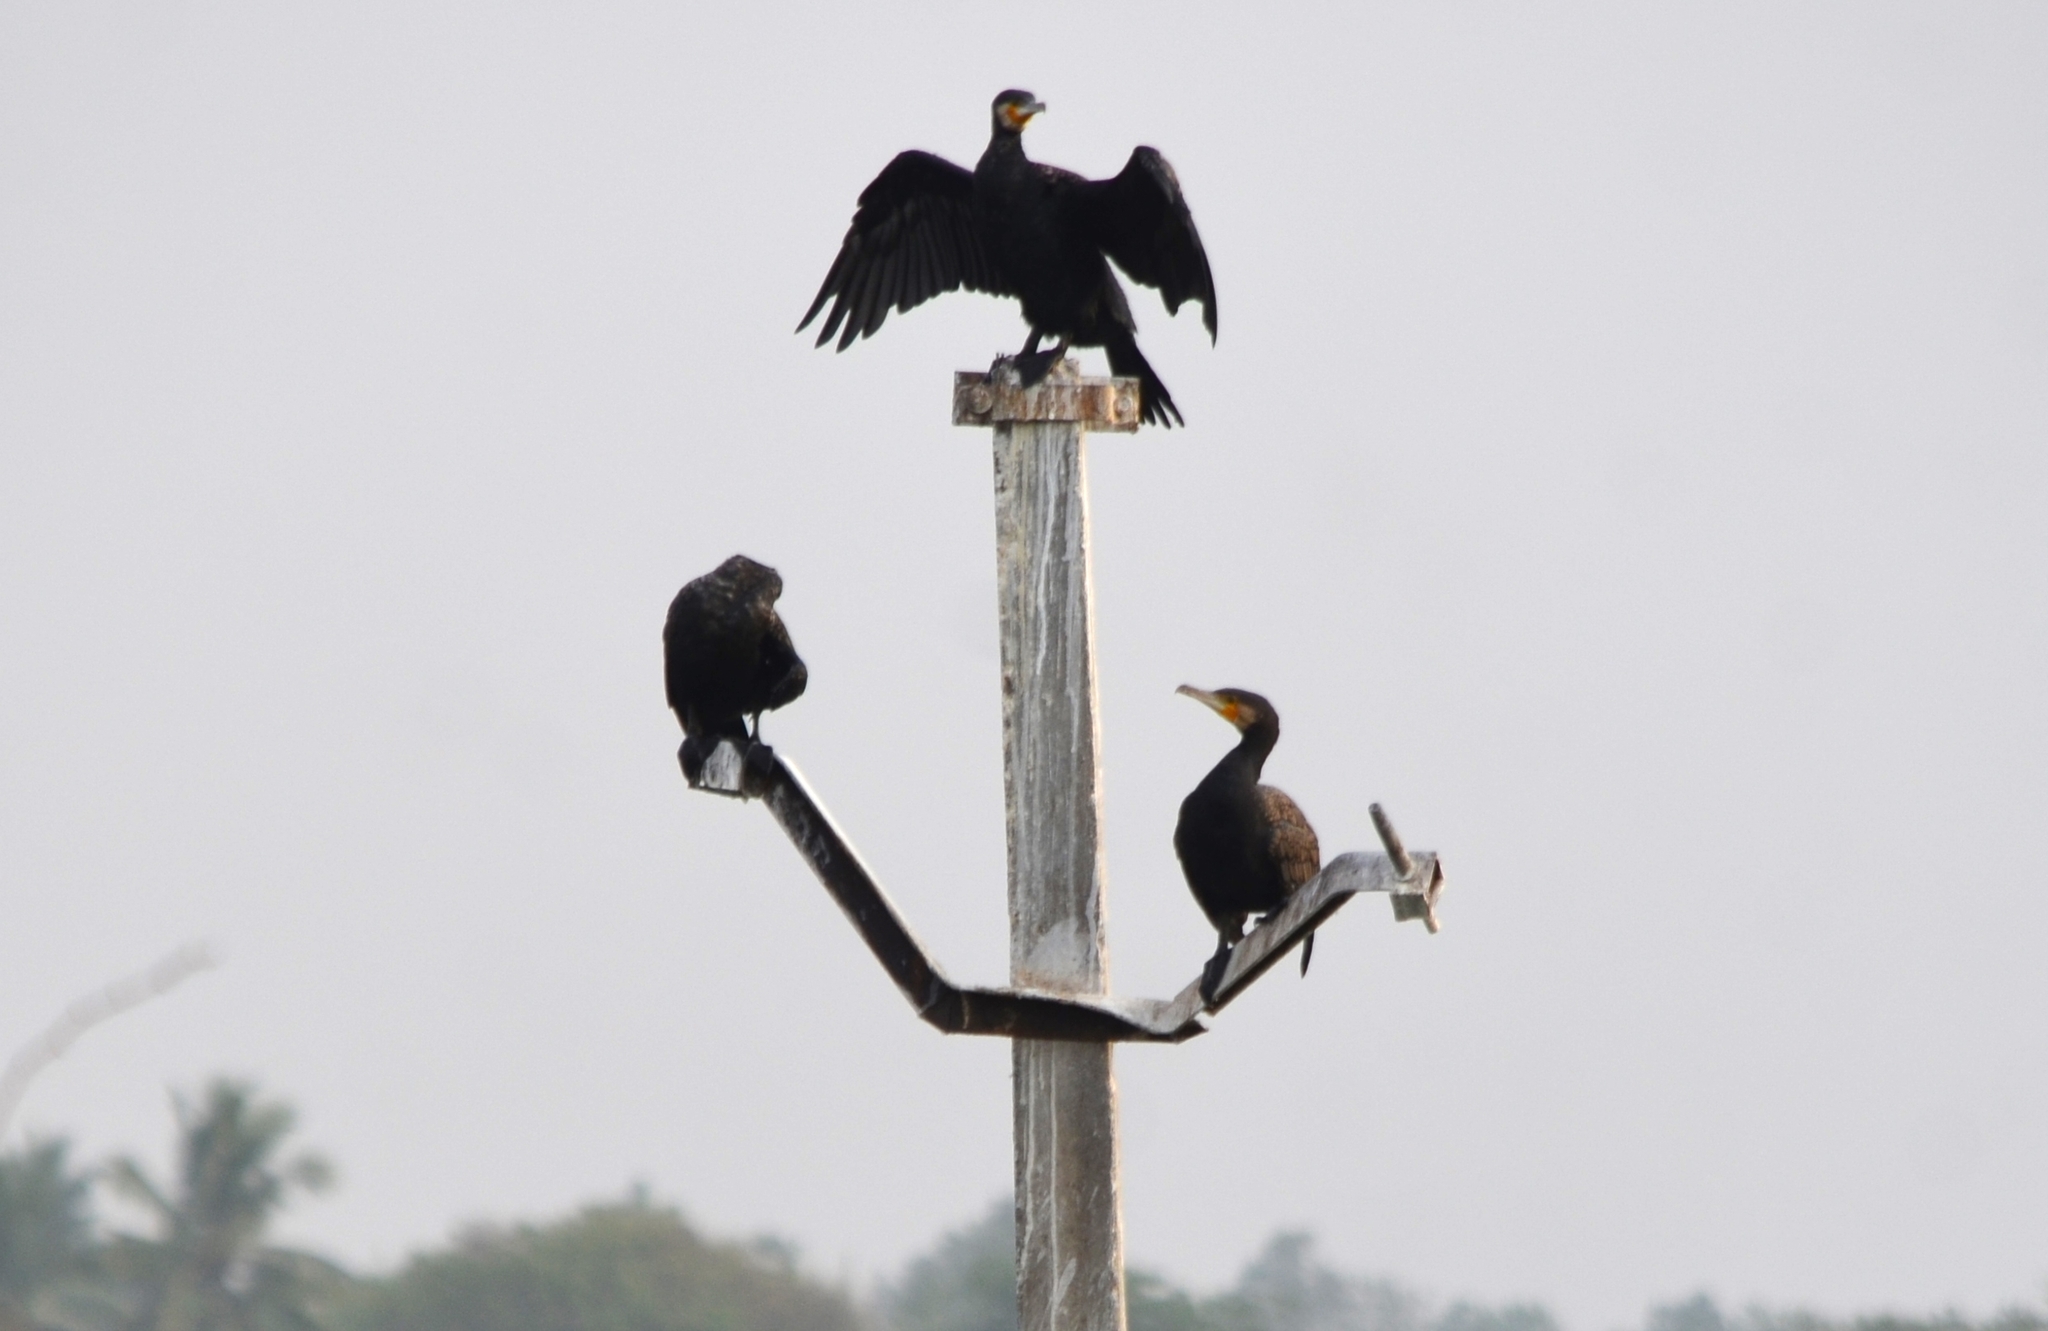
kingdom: Animalia
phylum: Chordata
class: Aves
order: Suliformes
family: Phalacrocoracidae
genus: Phalacrocorax
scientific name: Phalacrocorax carbo
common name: Great cormorant
